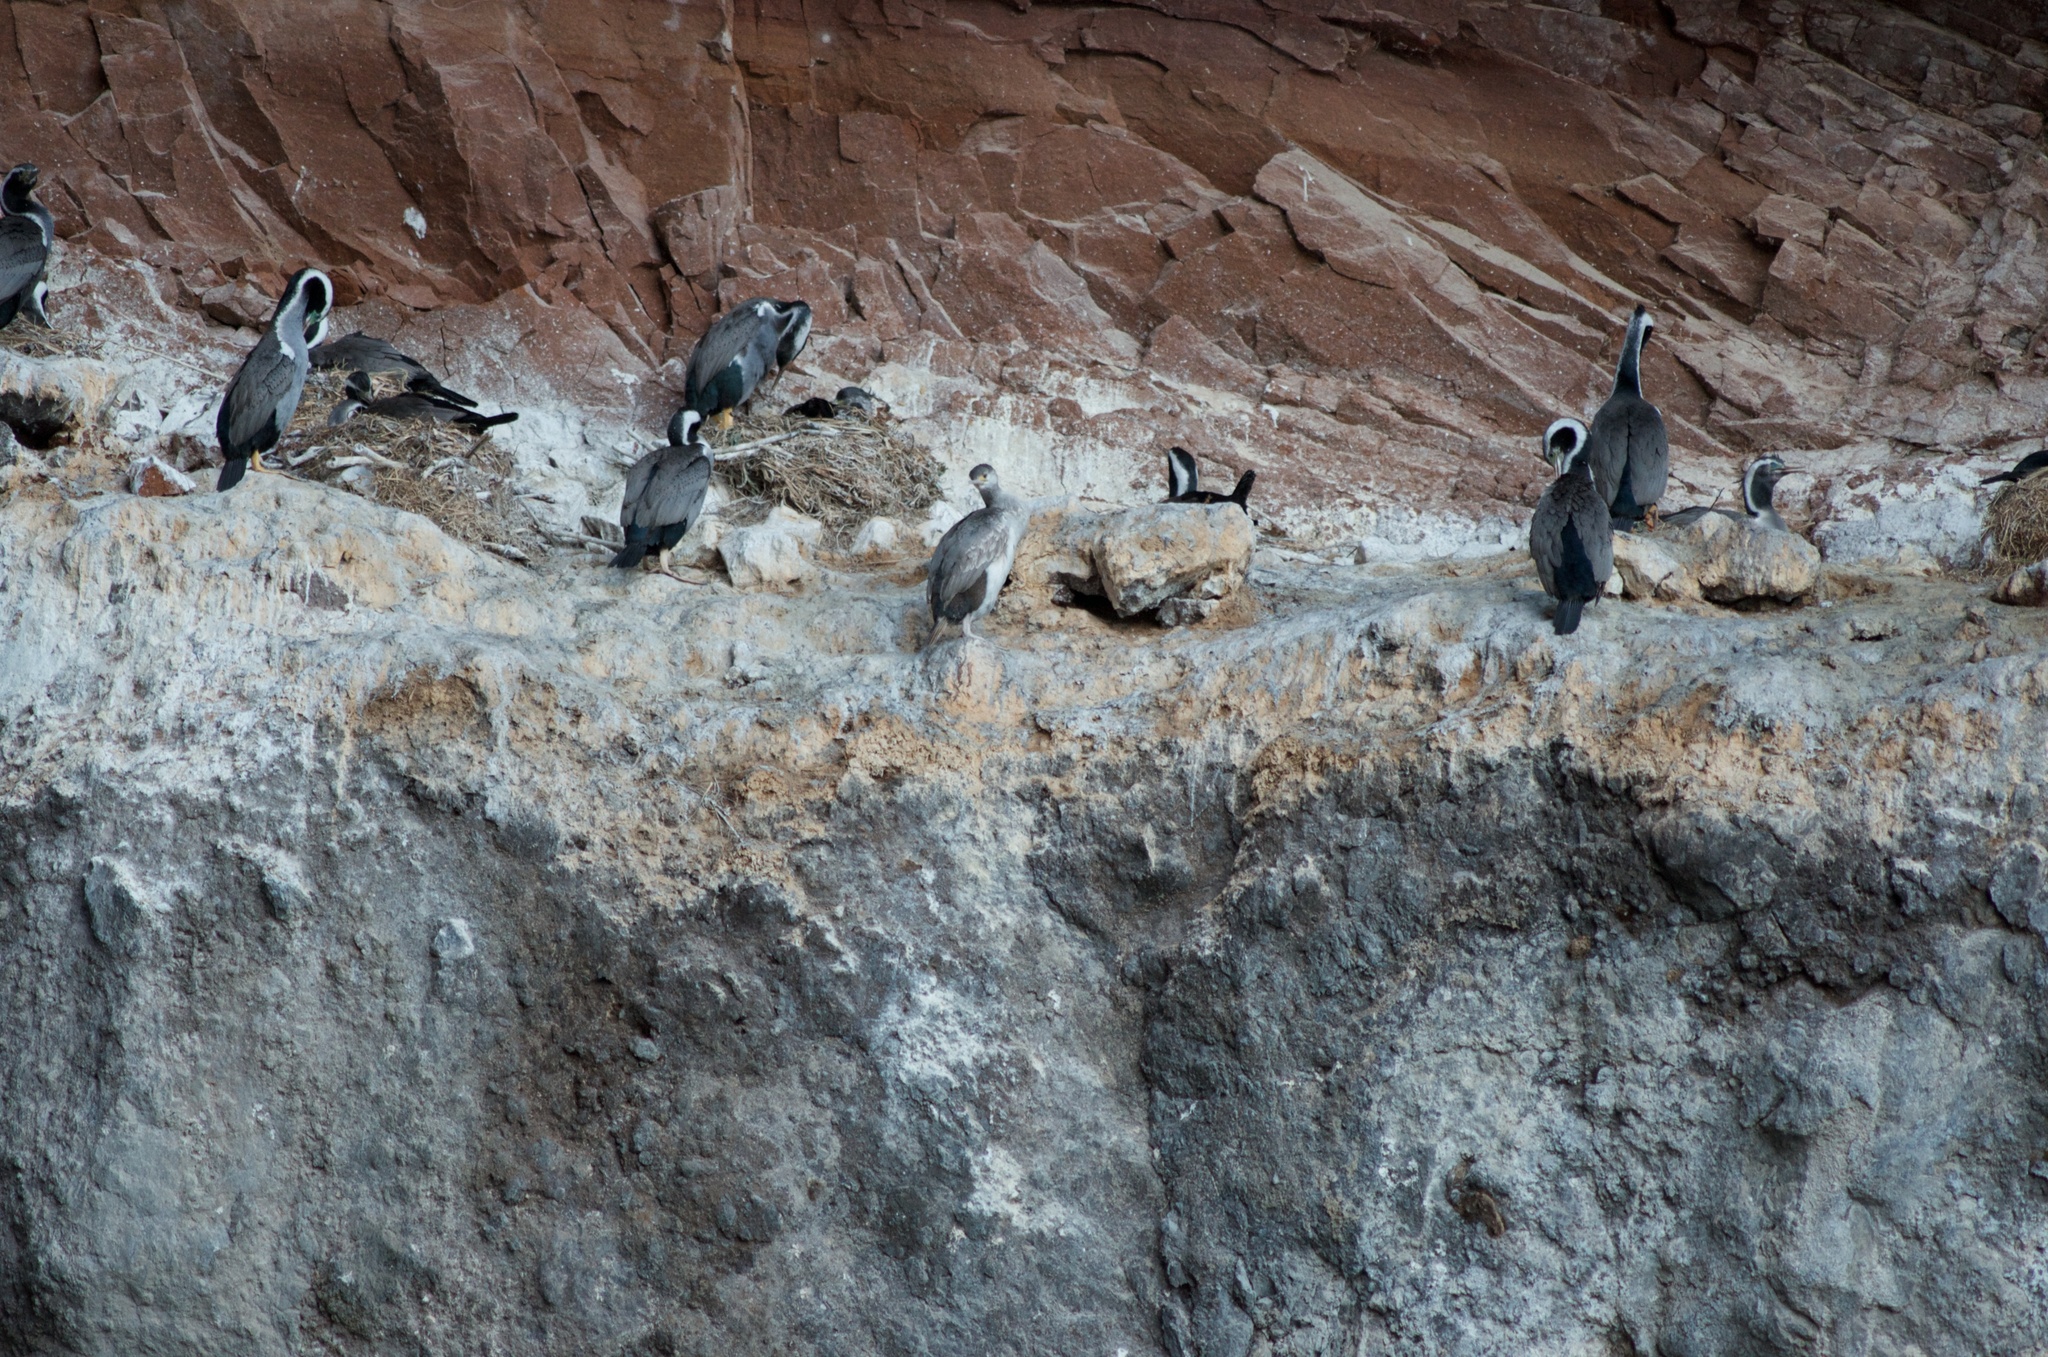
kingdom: Animalia
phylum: Chordata
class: Aves
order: Suliformes
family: Phalacrocoracidae
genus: Phalacrocorax
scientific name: Phalacrocorax punctatus
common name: Spotted shag
